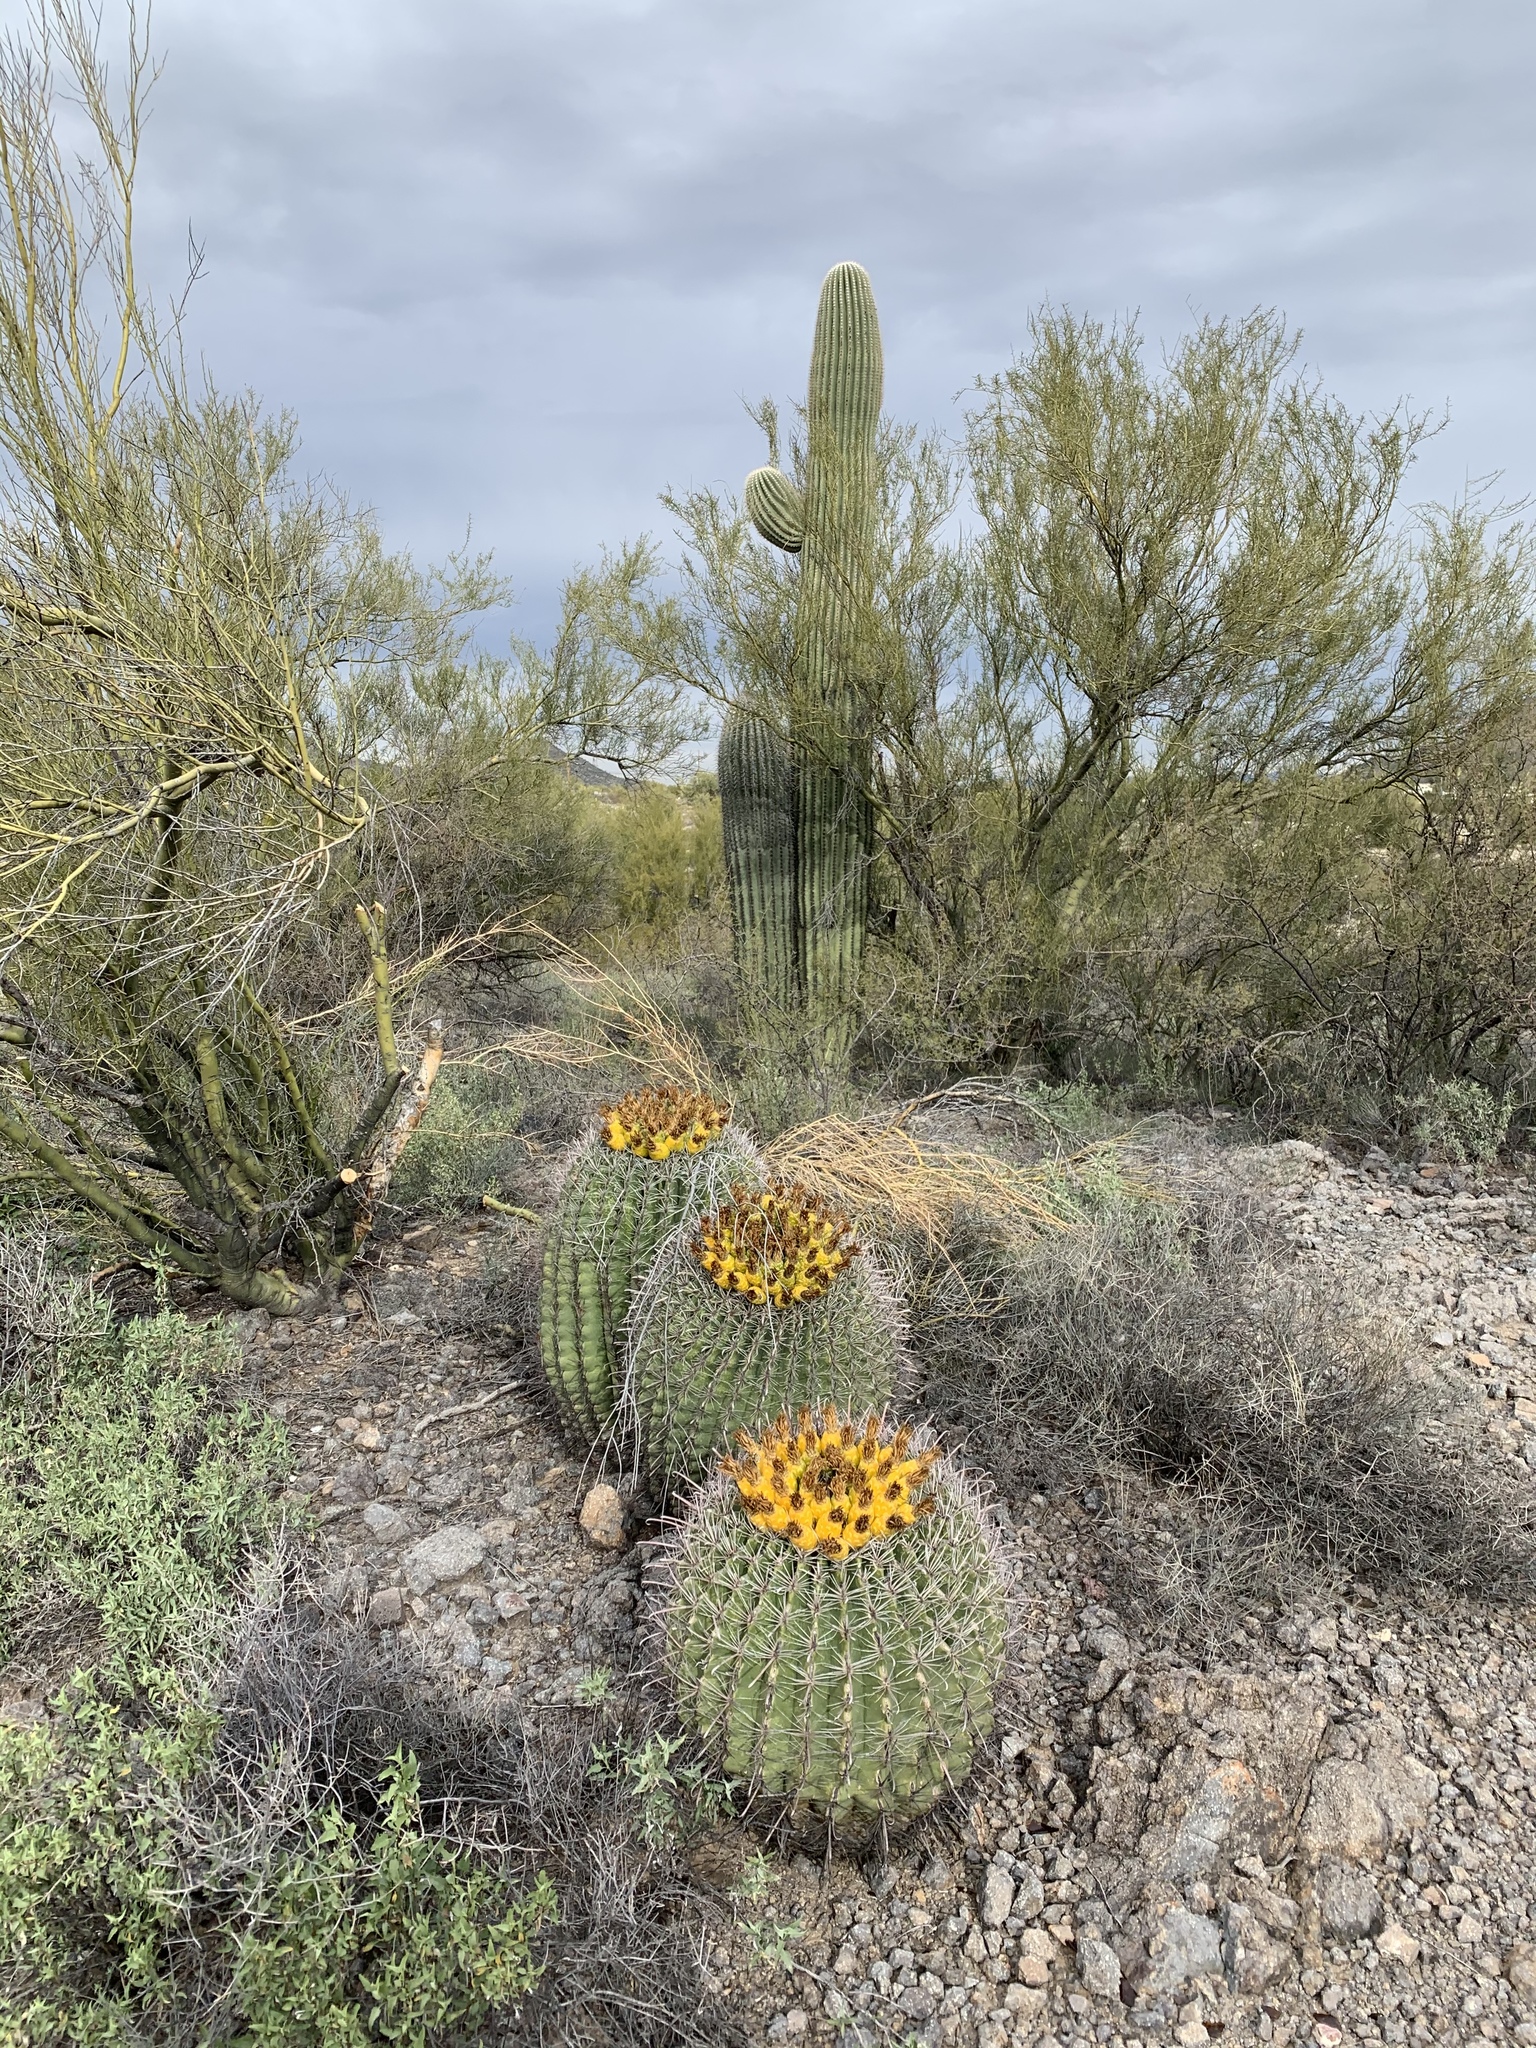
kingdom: Plantae
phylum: Tracheophyta
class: Magnoliopsida
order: Caryophyllales
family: Cactaceae
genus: Ferocactus
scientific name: Ferocactus wislizeni
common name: Candy barrel cactus
